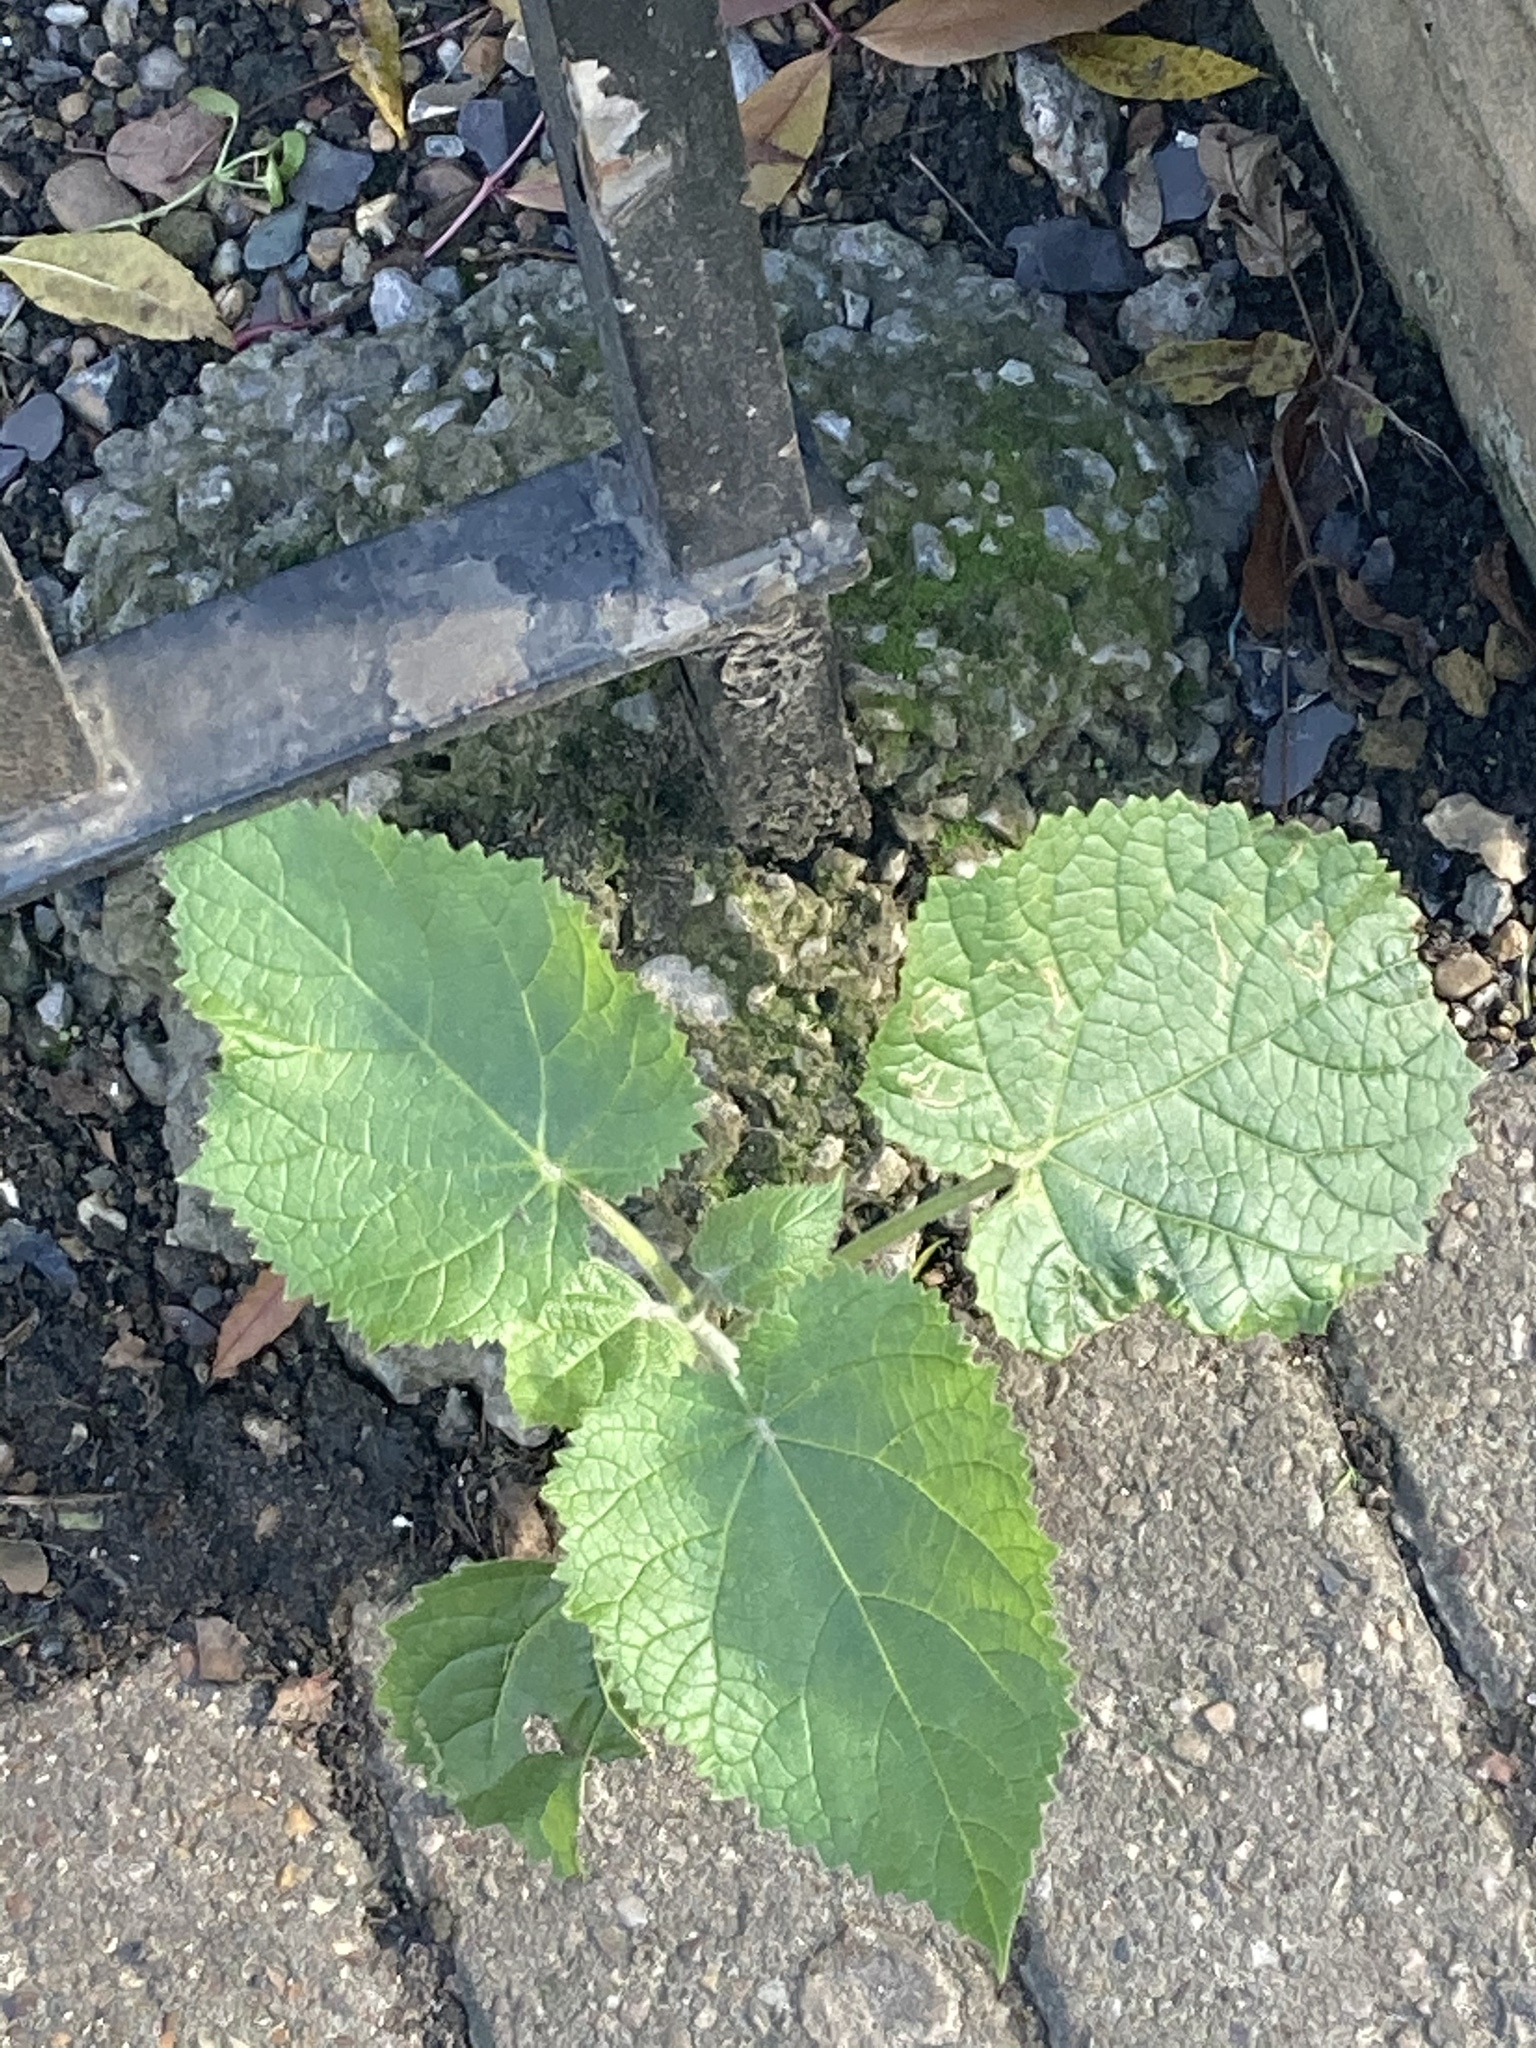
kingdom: Plantae
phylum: Tracheophyta
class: Magnoliopsida
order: Lamiales
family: Paulowniaceae
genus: Paulownia
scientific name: Paulownia tomentosa
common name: Foxglove-tree
